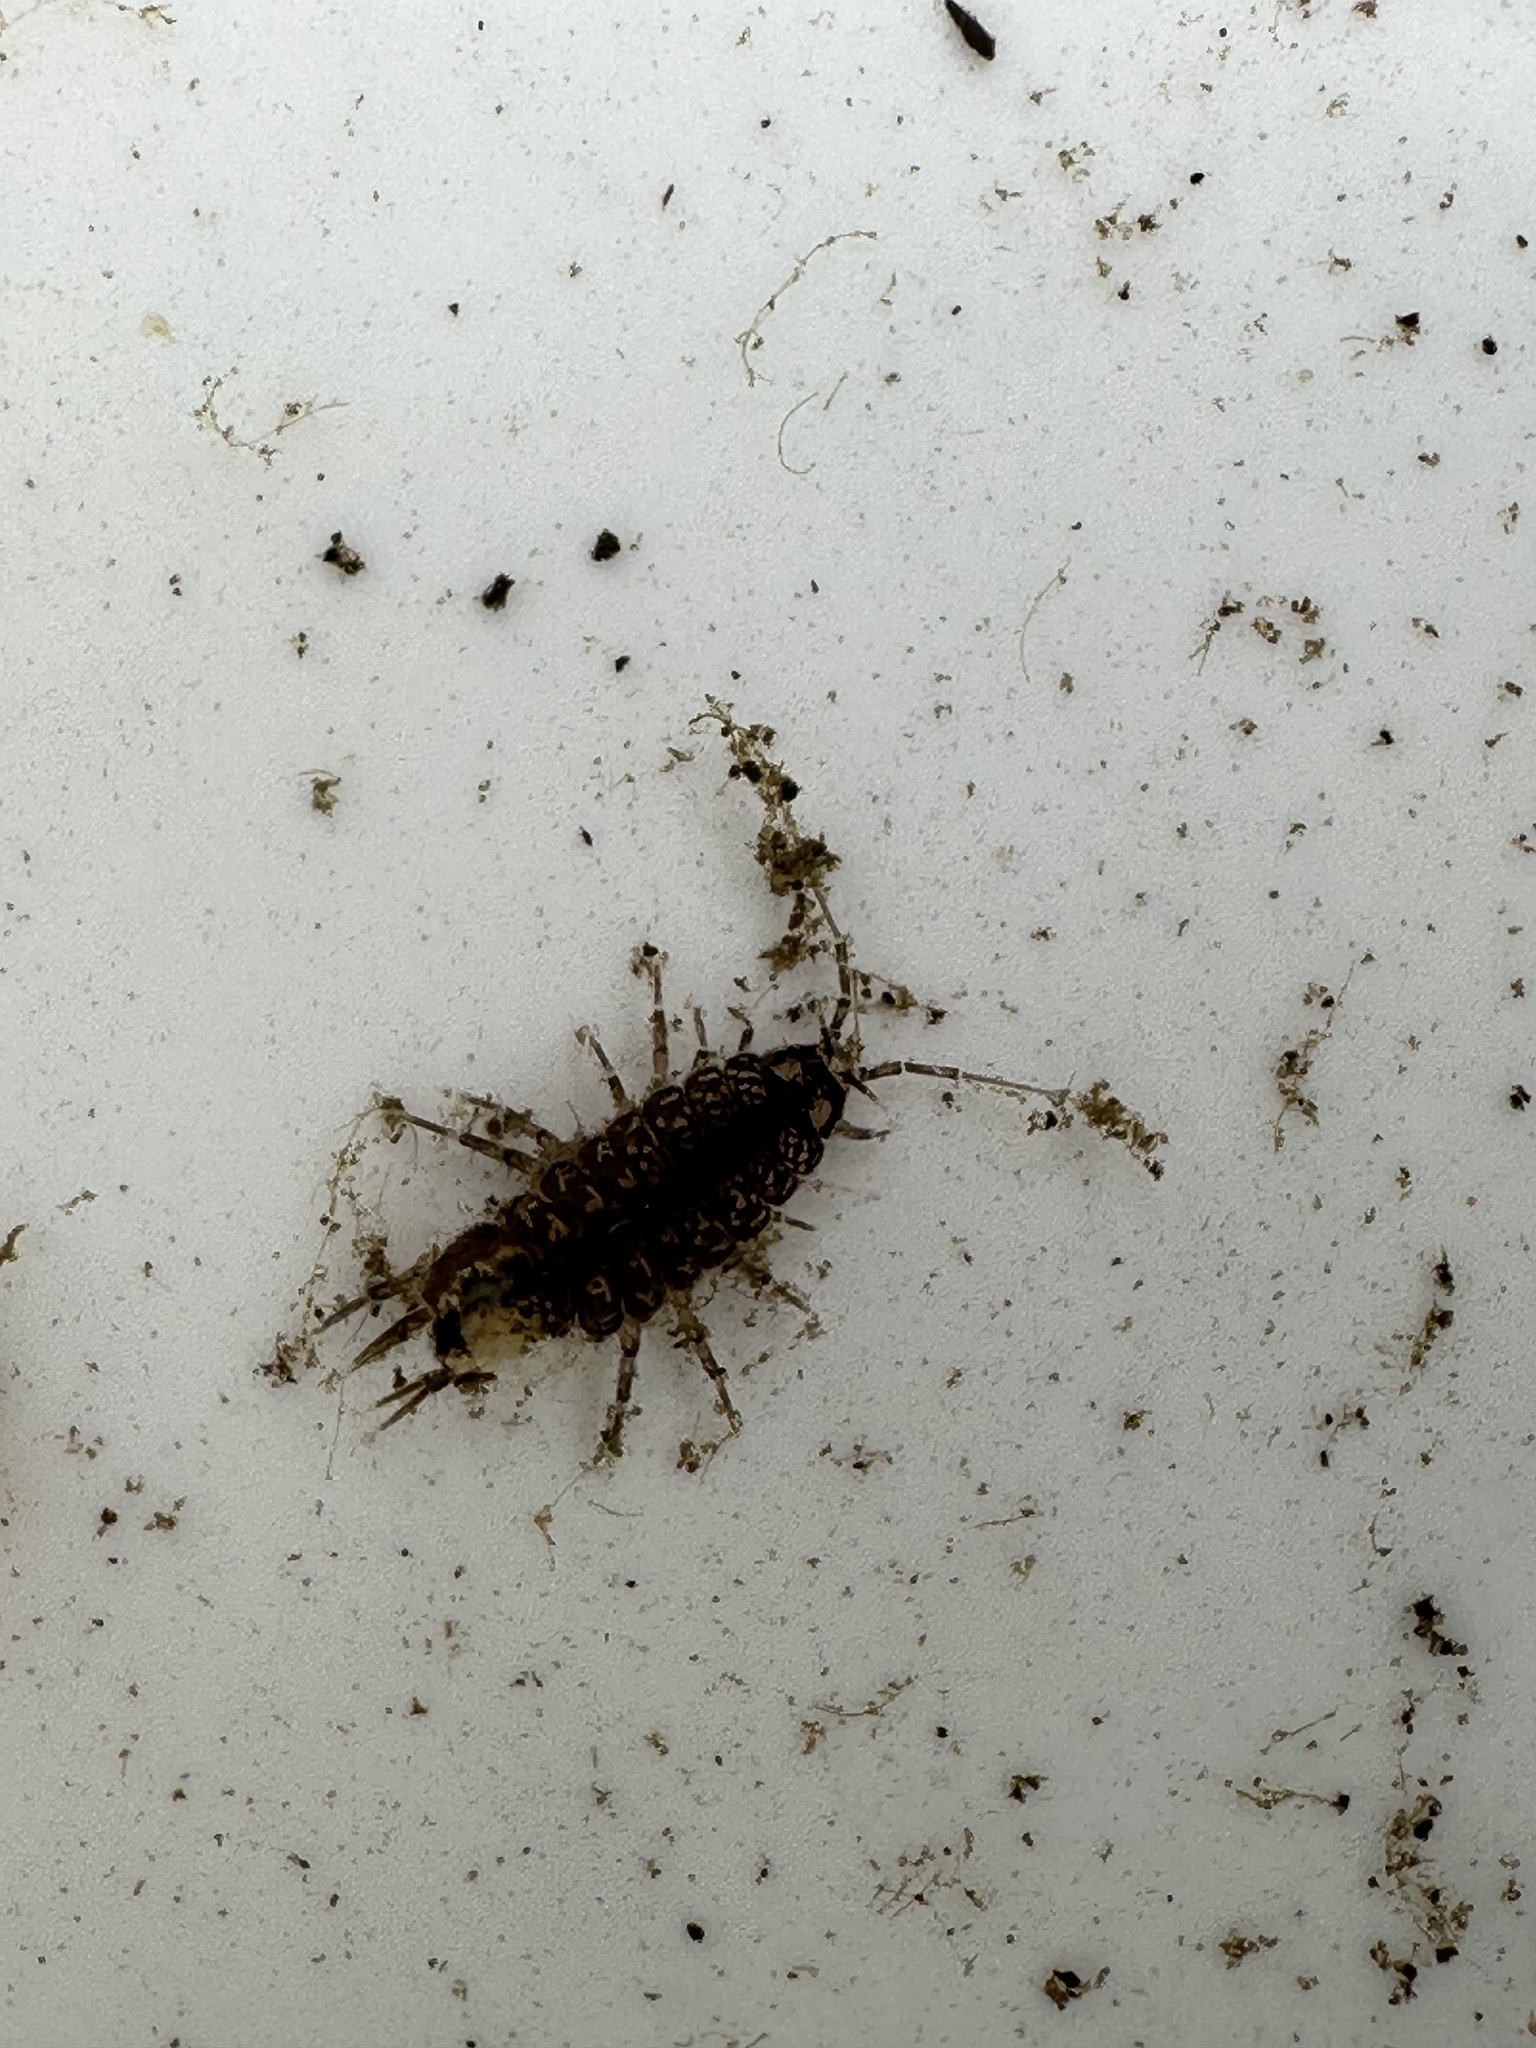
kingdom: Animalia
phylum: Arthropoda
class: Malacostraca
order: Isopoda
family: Asellidae
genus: Asellus
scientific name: Asellus aquaticus
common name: Water hog lice/slaters
